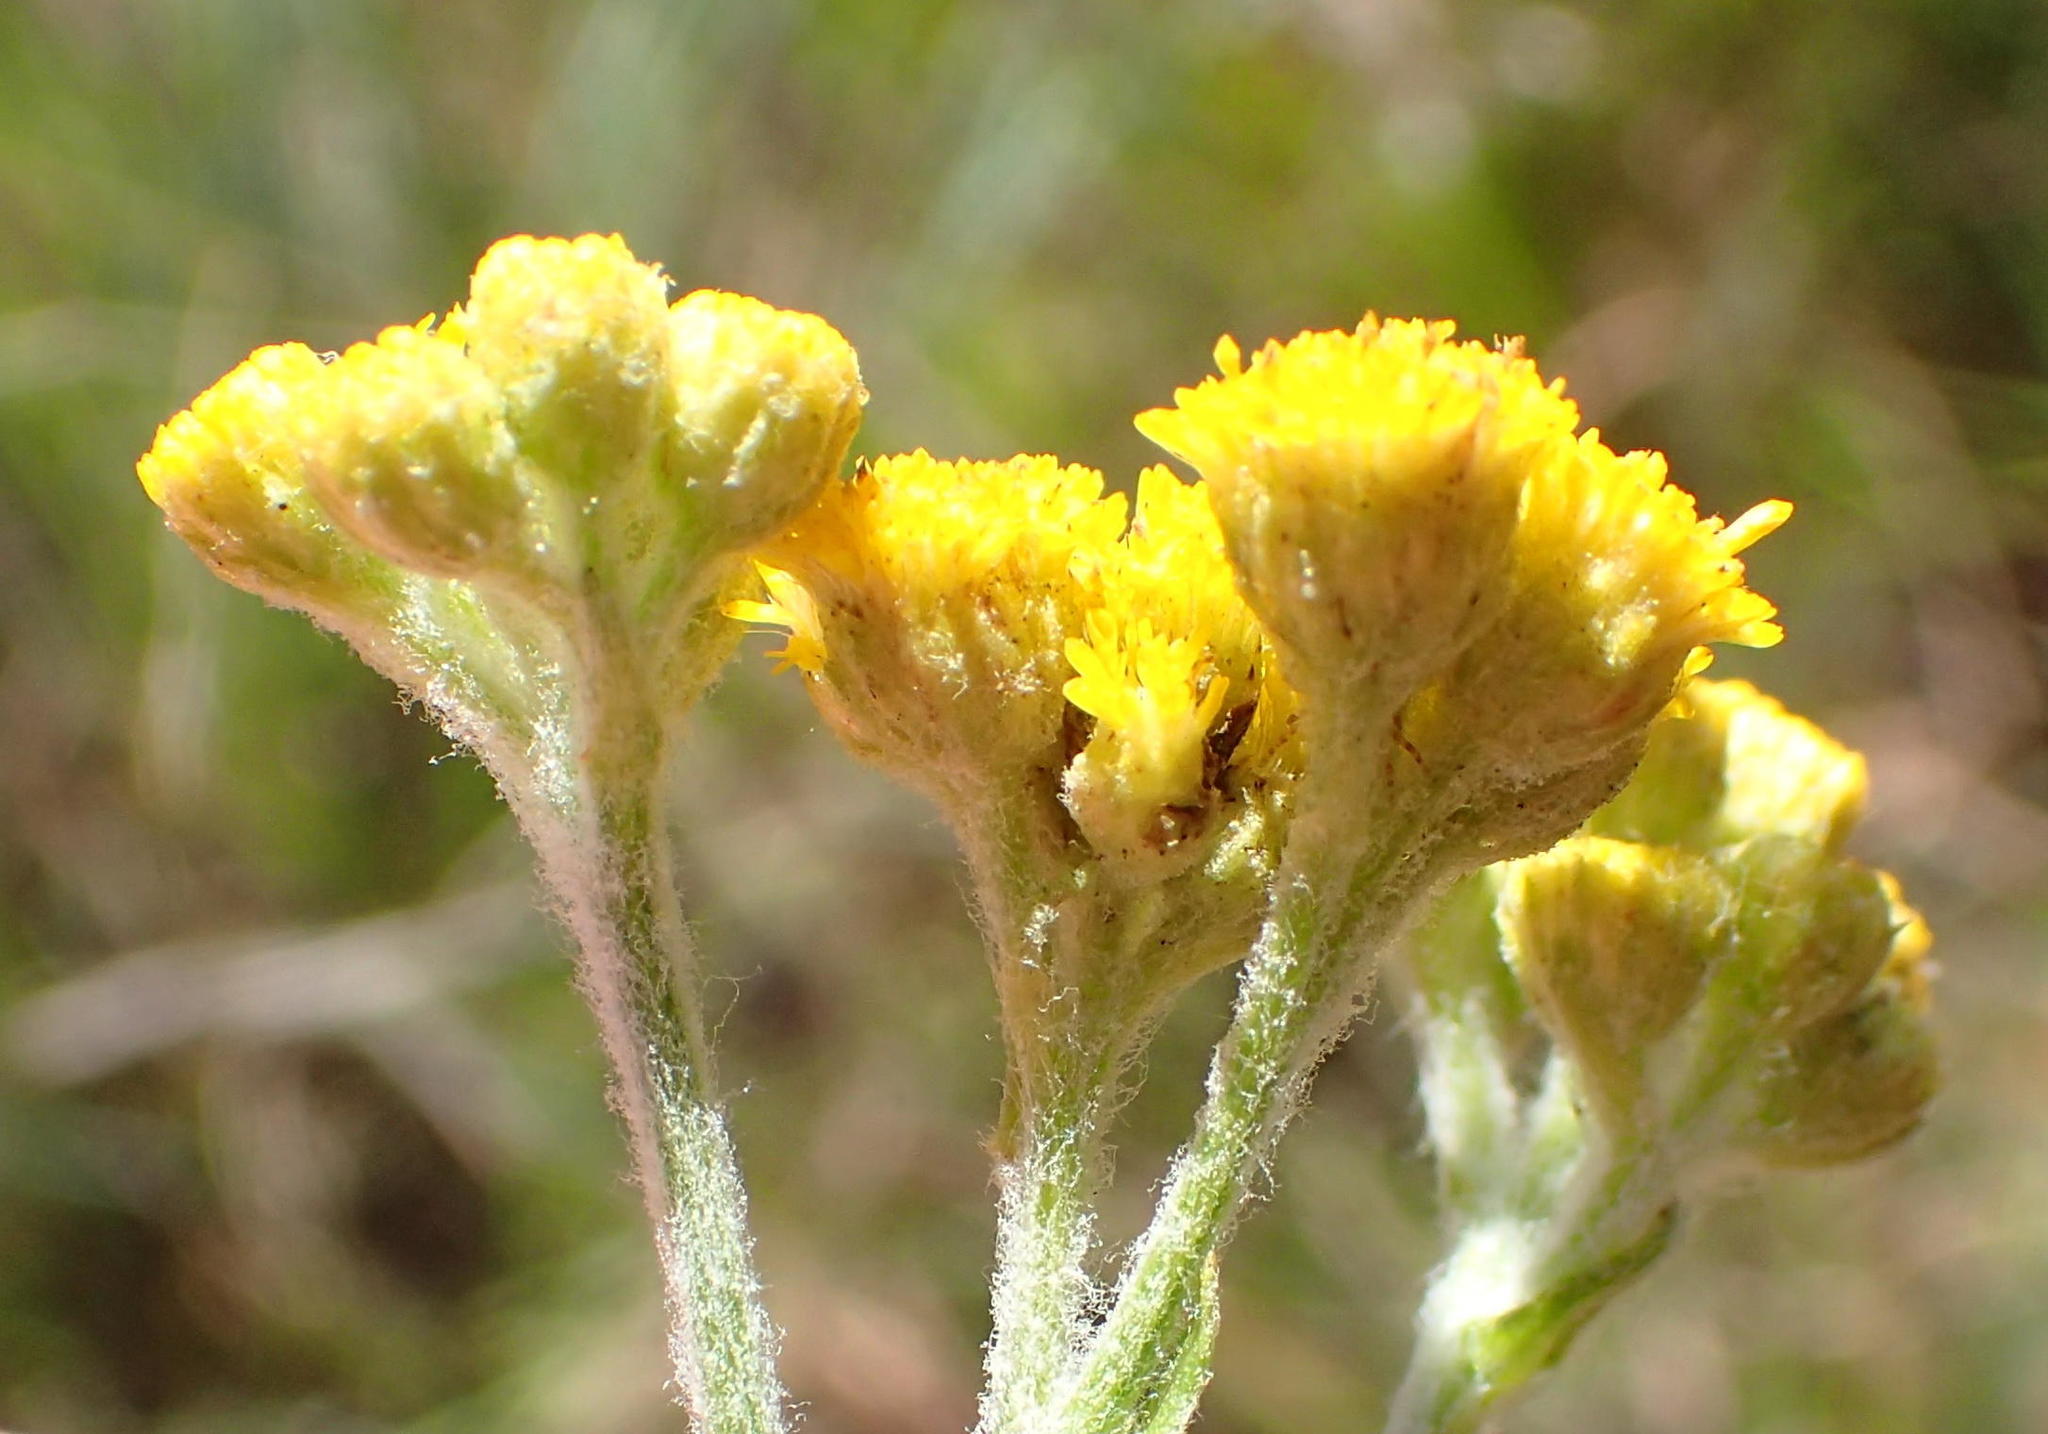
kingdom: Plantae
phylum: Tracheophyta
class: Magnoliopsida
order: Asterales
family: Asteraceae
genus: Nidorella
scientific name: Nidorella hottentotica
